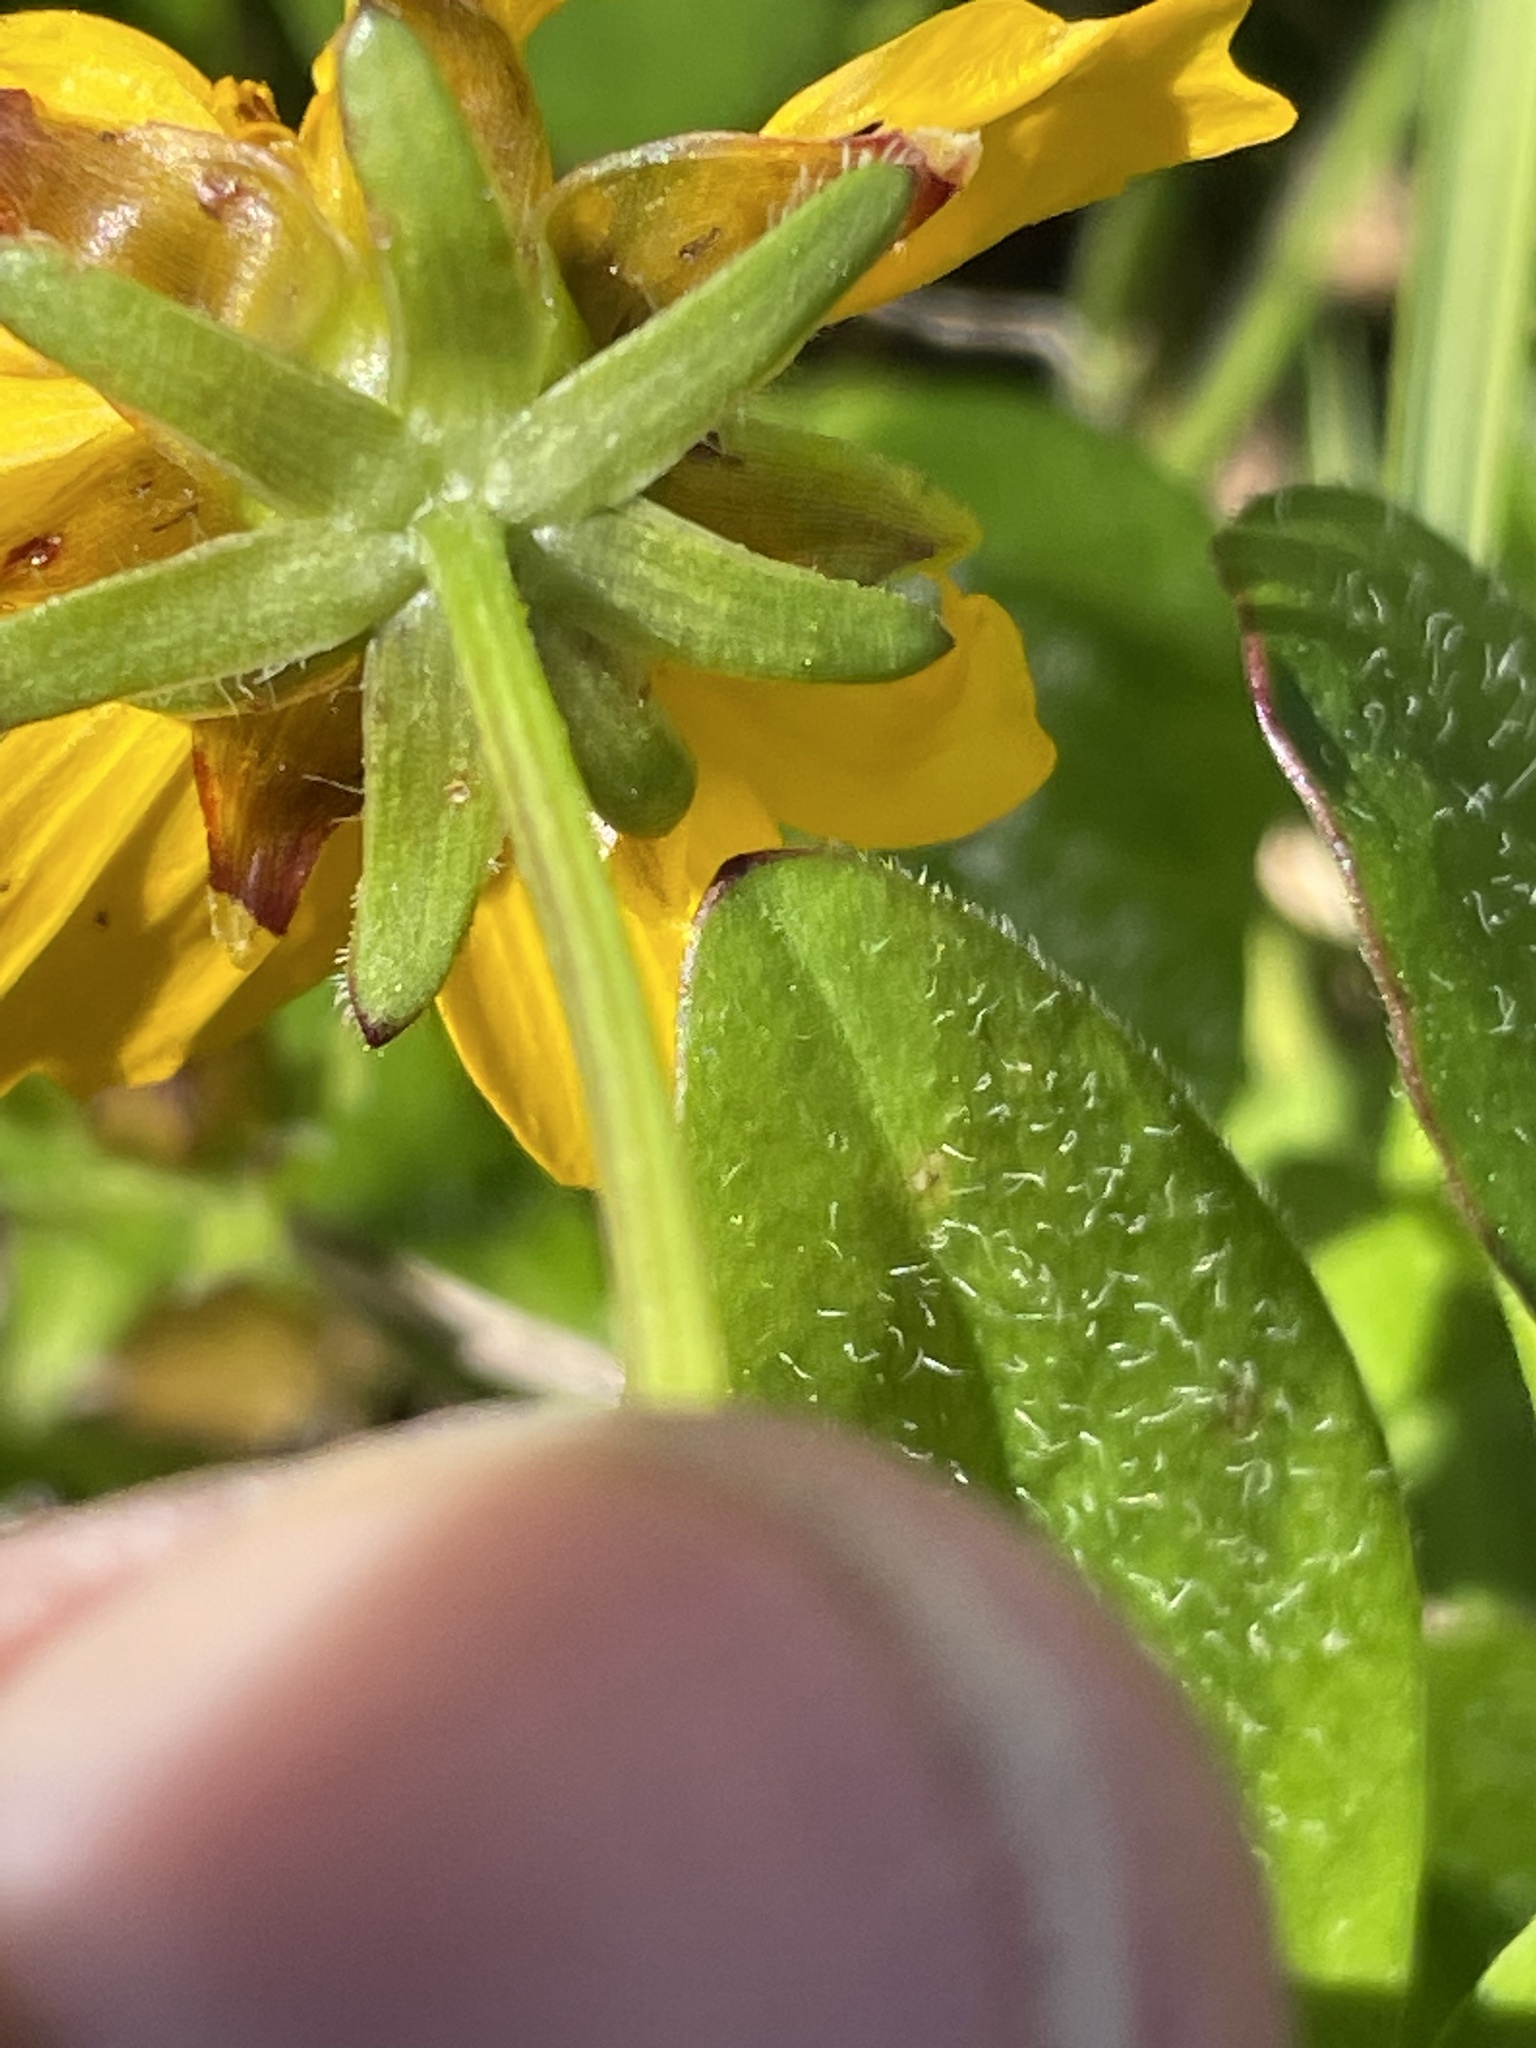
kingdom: Plantae
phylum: Tracheophyta
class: Magnoliopsida
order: Asterales
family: Asteraceae
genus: Coreopsis
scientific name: Coreopsis auriculata
